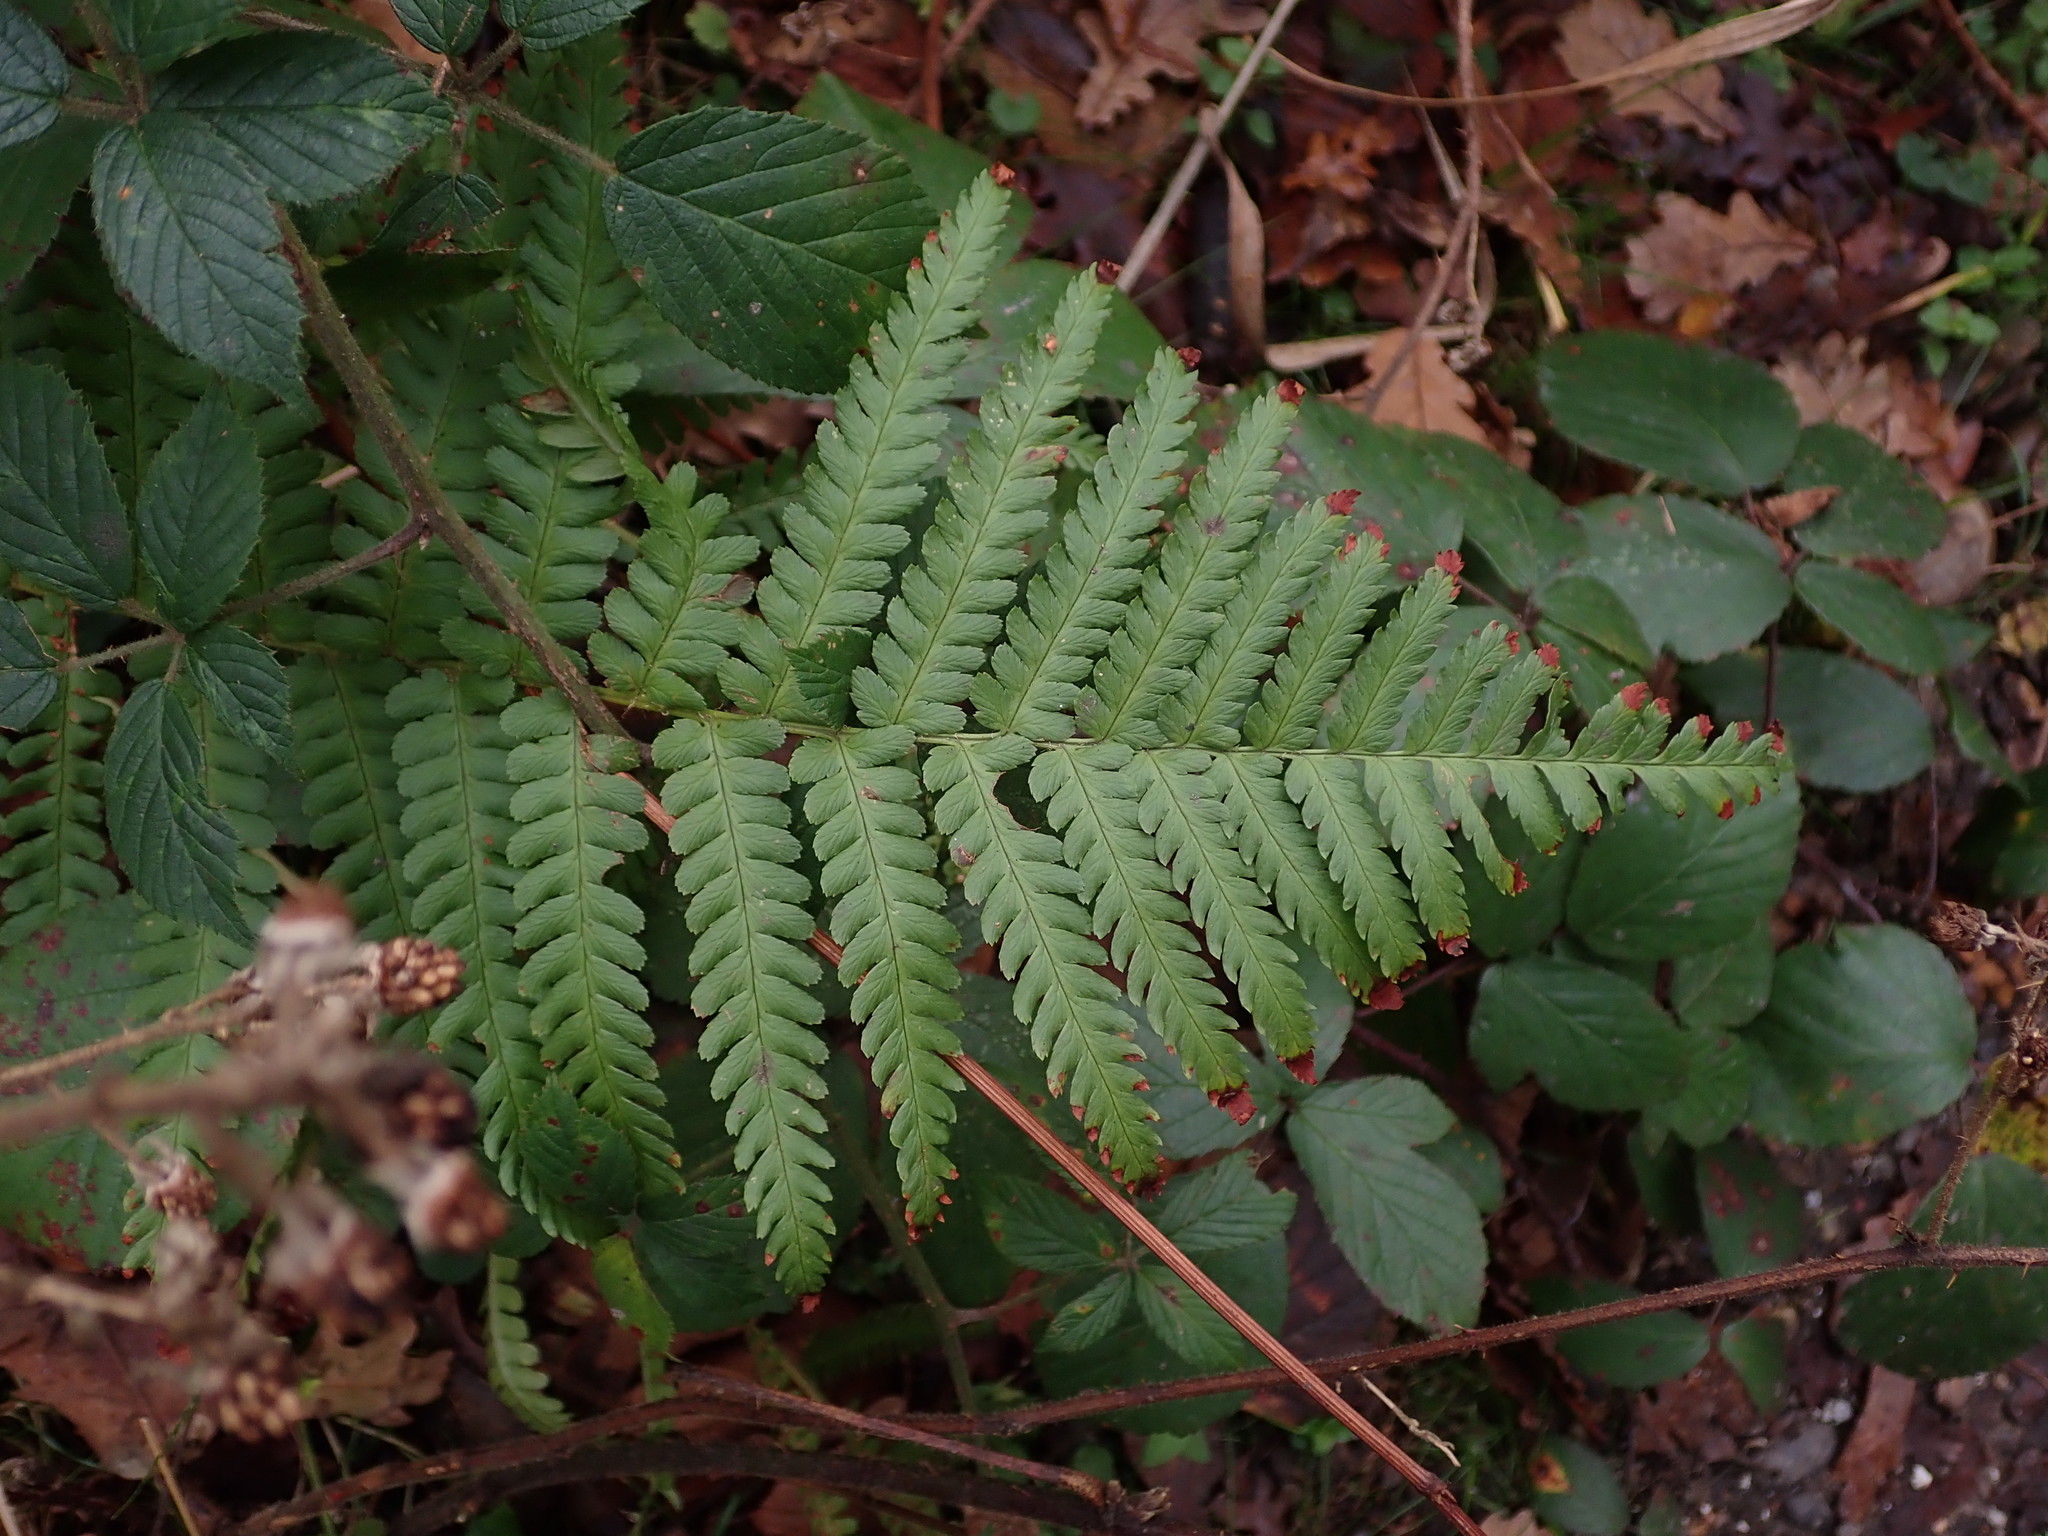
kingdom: Plantae
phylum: Tracheophyta
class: Polypodiopsida
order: Polypodiales
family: Dryopteridaceae
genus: Dryopteris
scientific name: Dryopteris filix-mas
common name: Male fern
